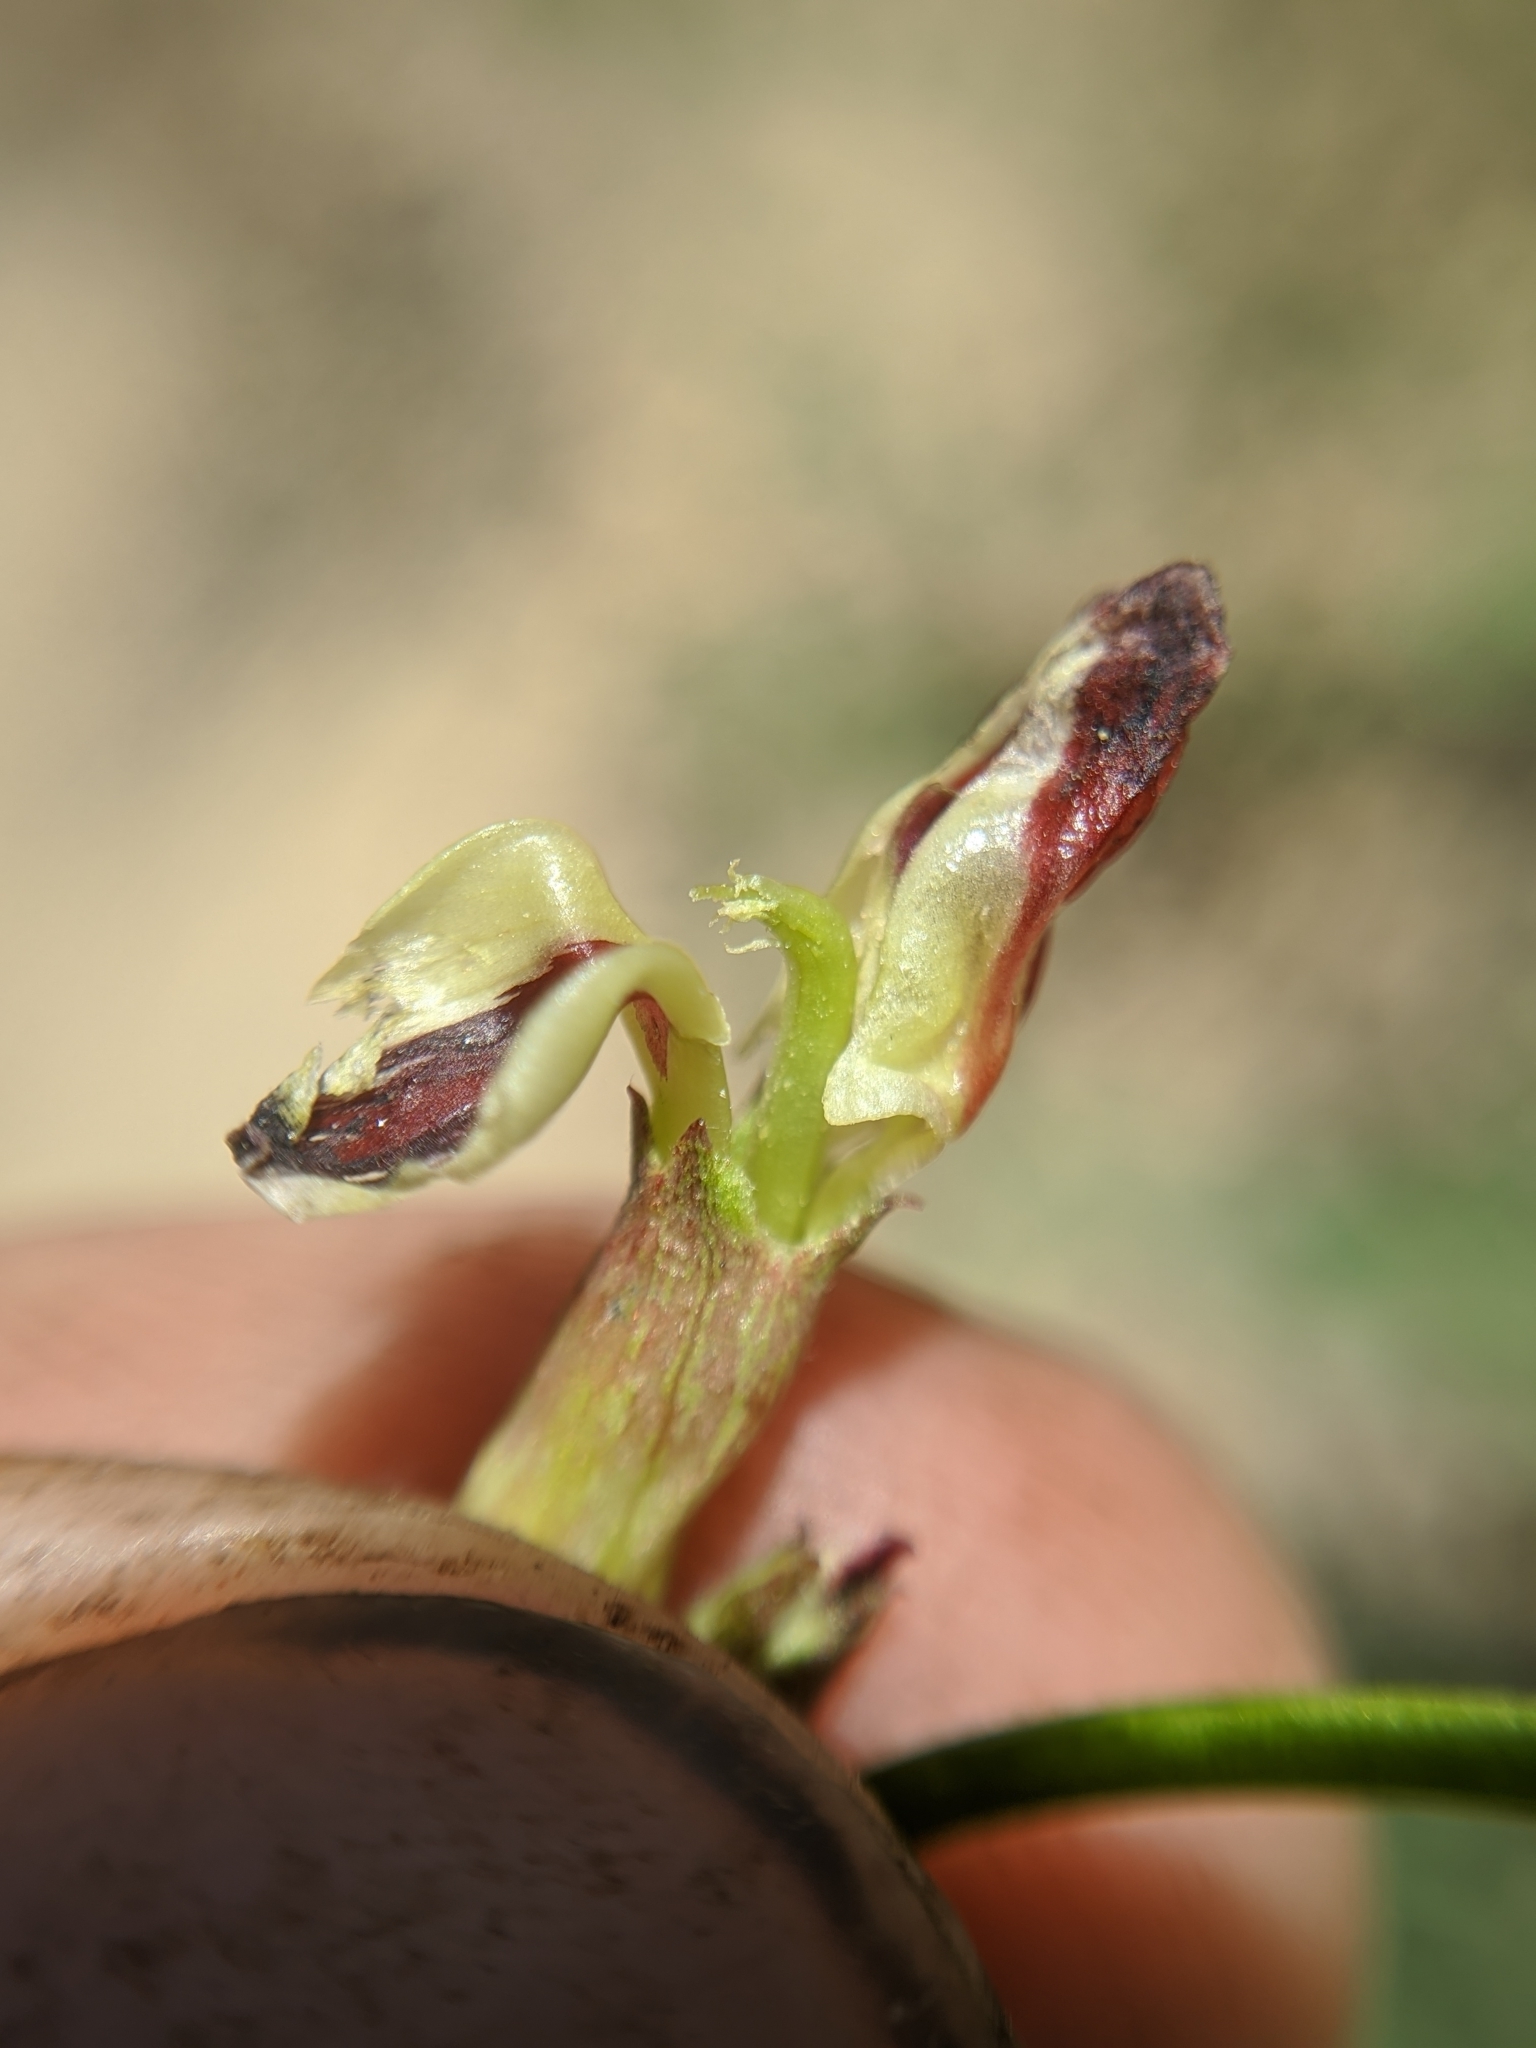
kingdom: Plantae
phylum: Tracheophyta
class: Magnoliopsida
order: Fabales
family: Fabaceae
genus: Hosackia
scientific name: Hosackia crassifolia
